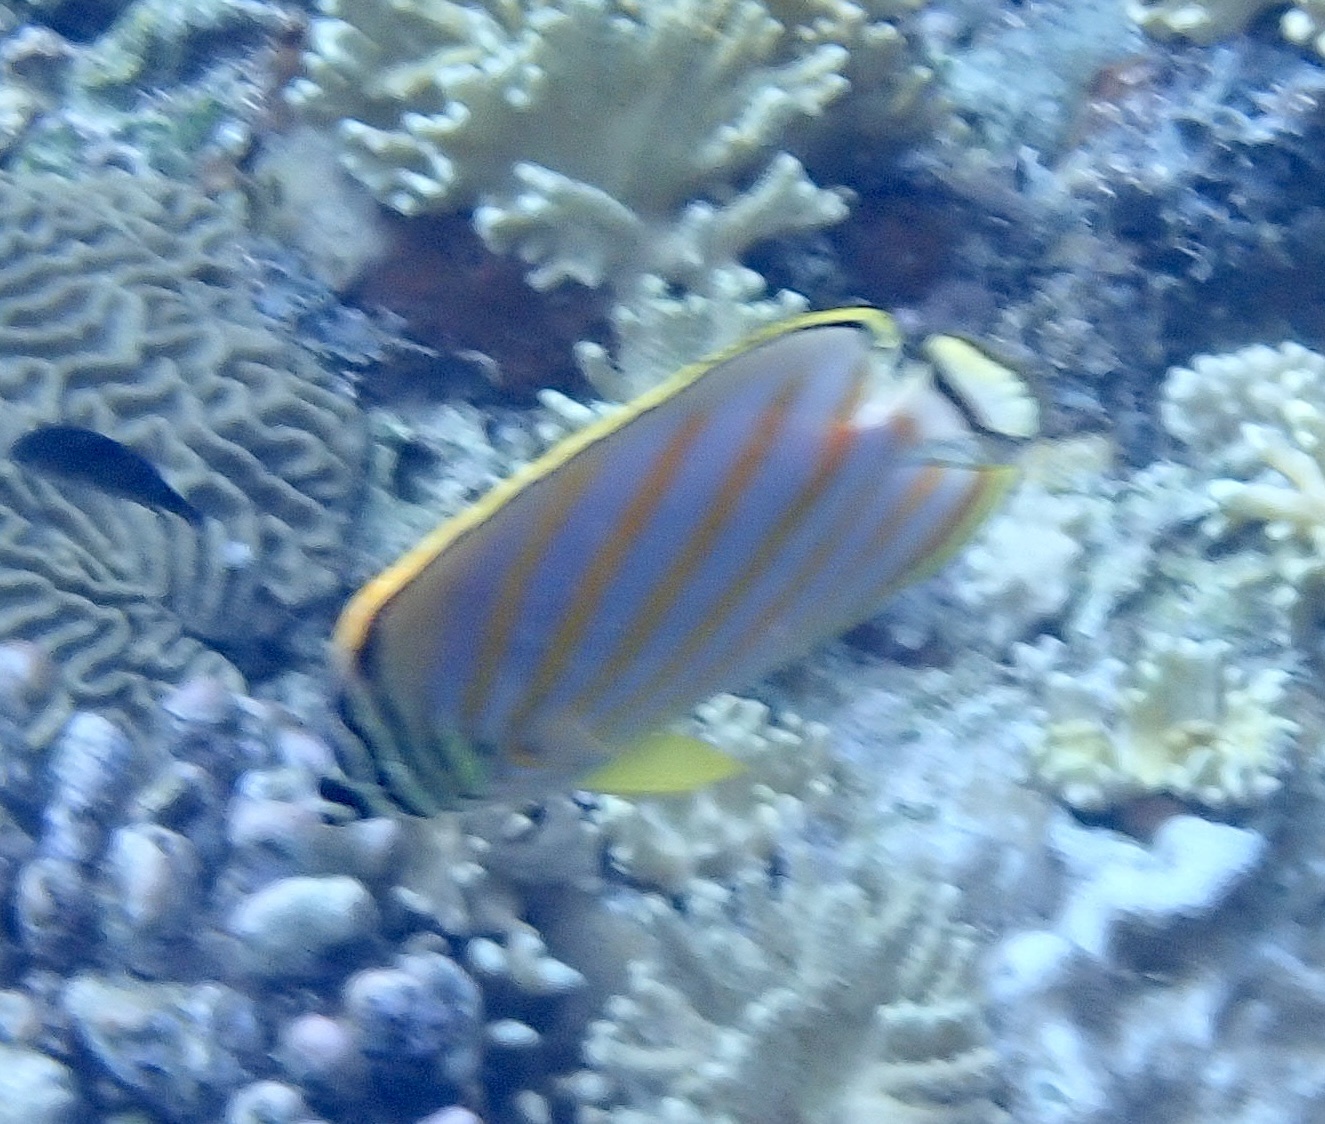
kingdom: Animalia
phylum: Chordata
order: Perciformes
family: Chaetodontidae
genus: Chaetodon
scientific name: Chaetodon ornatissimus
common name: Ornate butterflyfish
